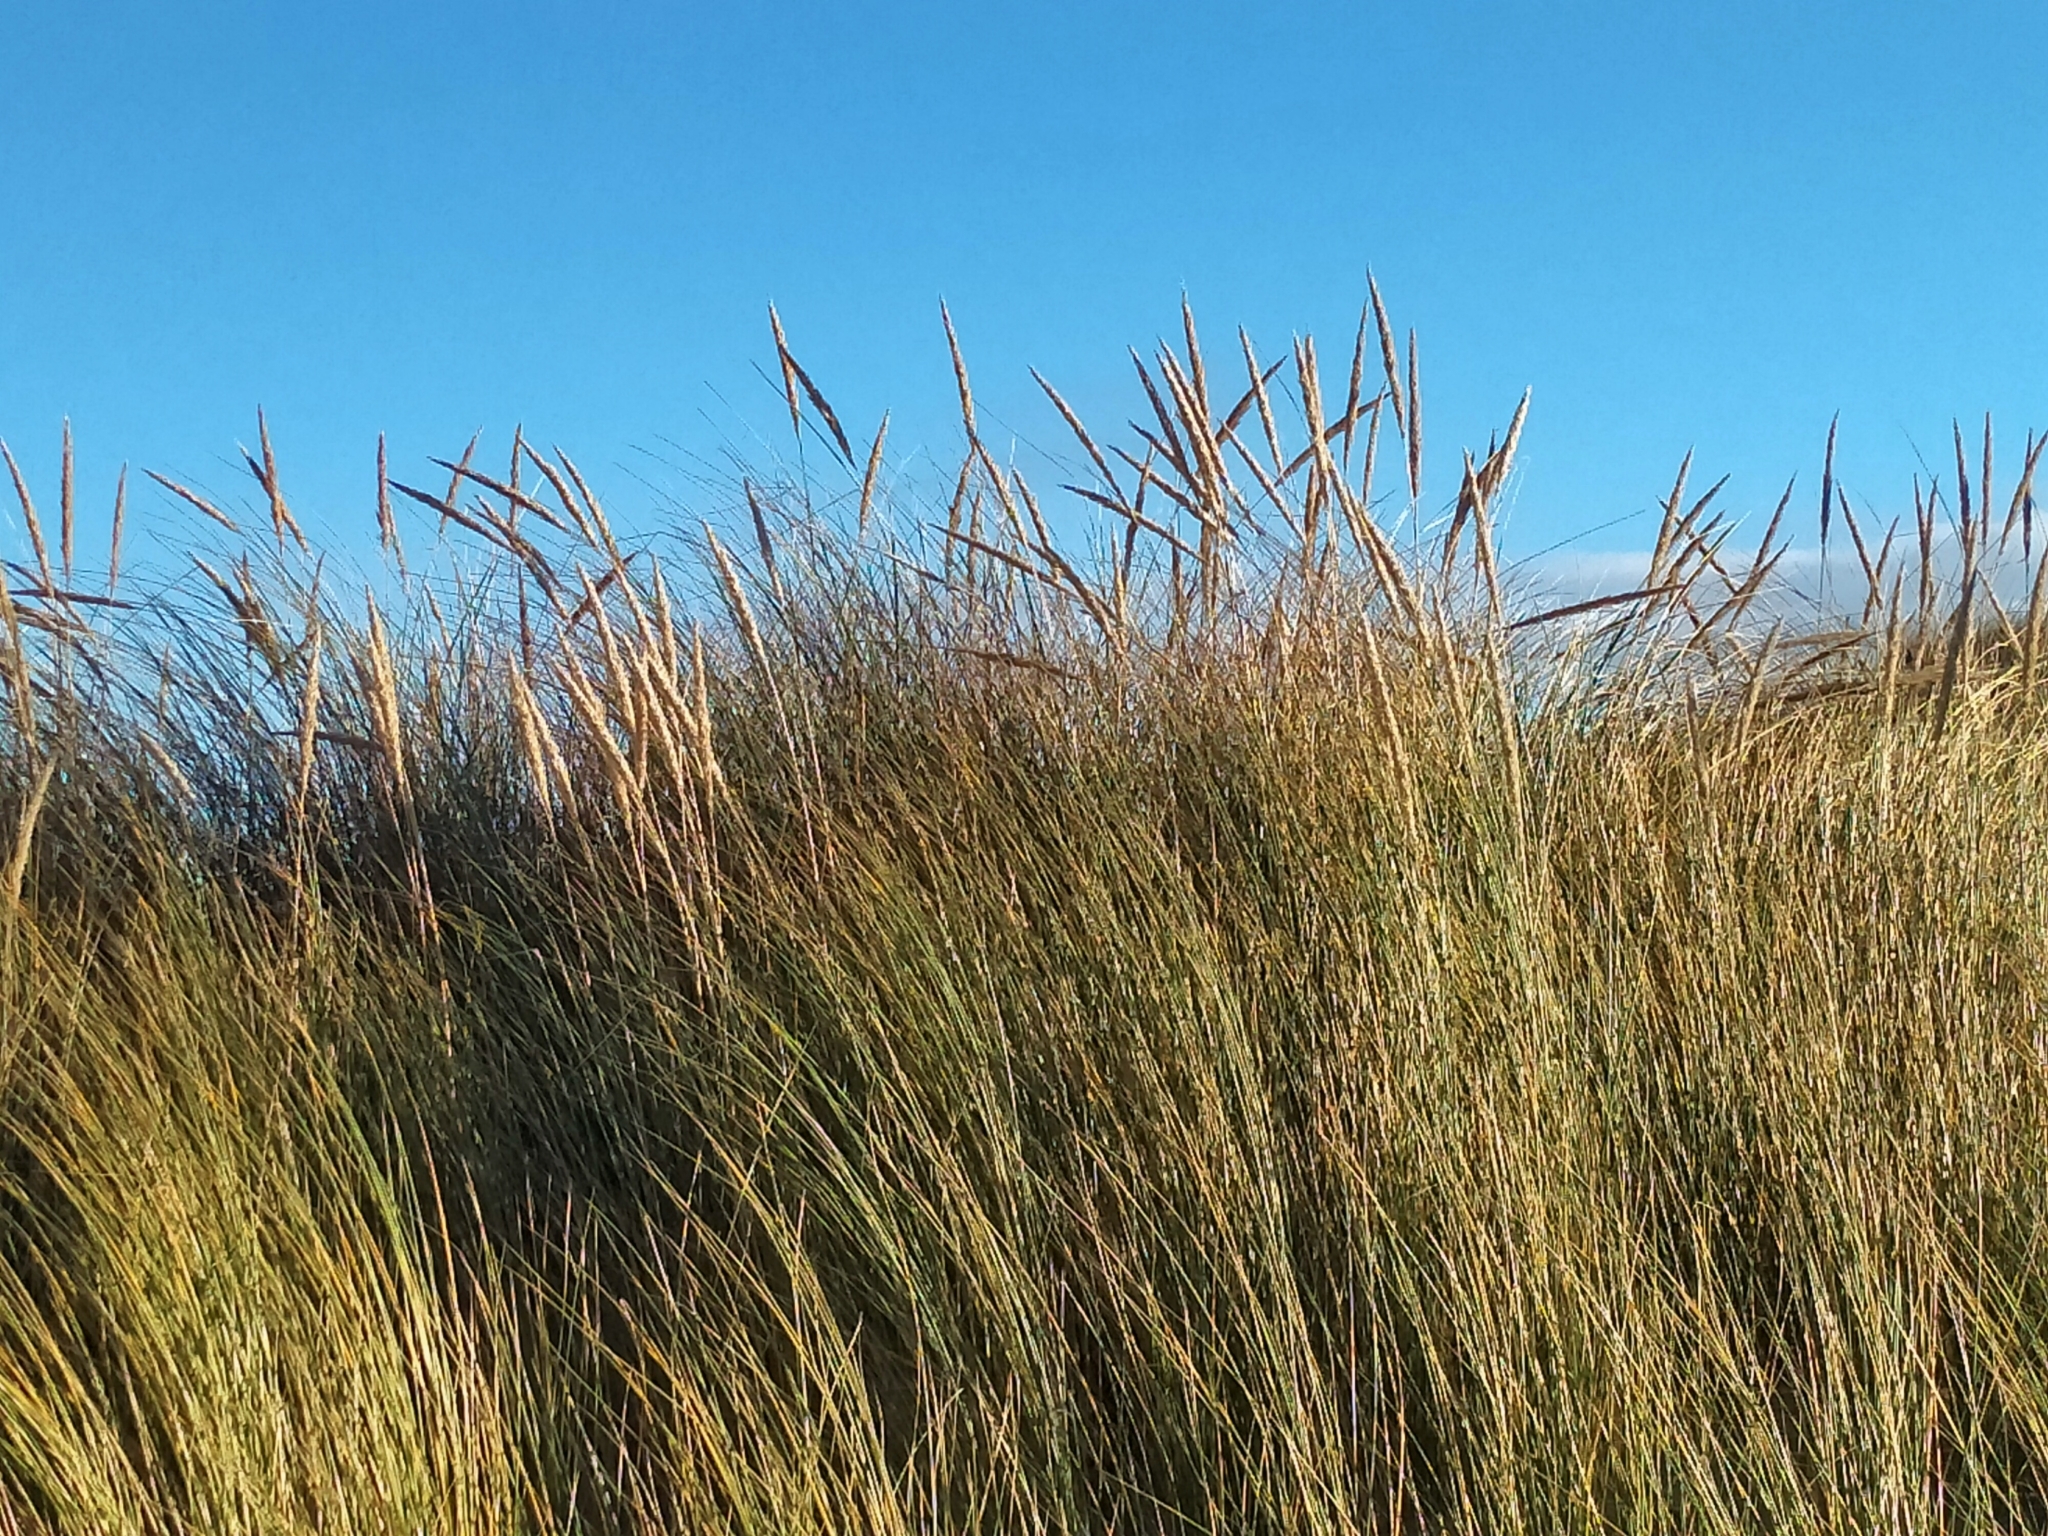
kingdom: Plantae
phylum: Tracheophyta
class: Liliopsida
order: Poales
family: Poaceae
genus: Calamagrostis
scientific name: Calamagrostis arenaria
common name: European beachgrass
